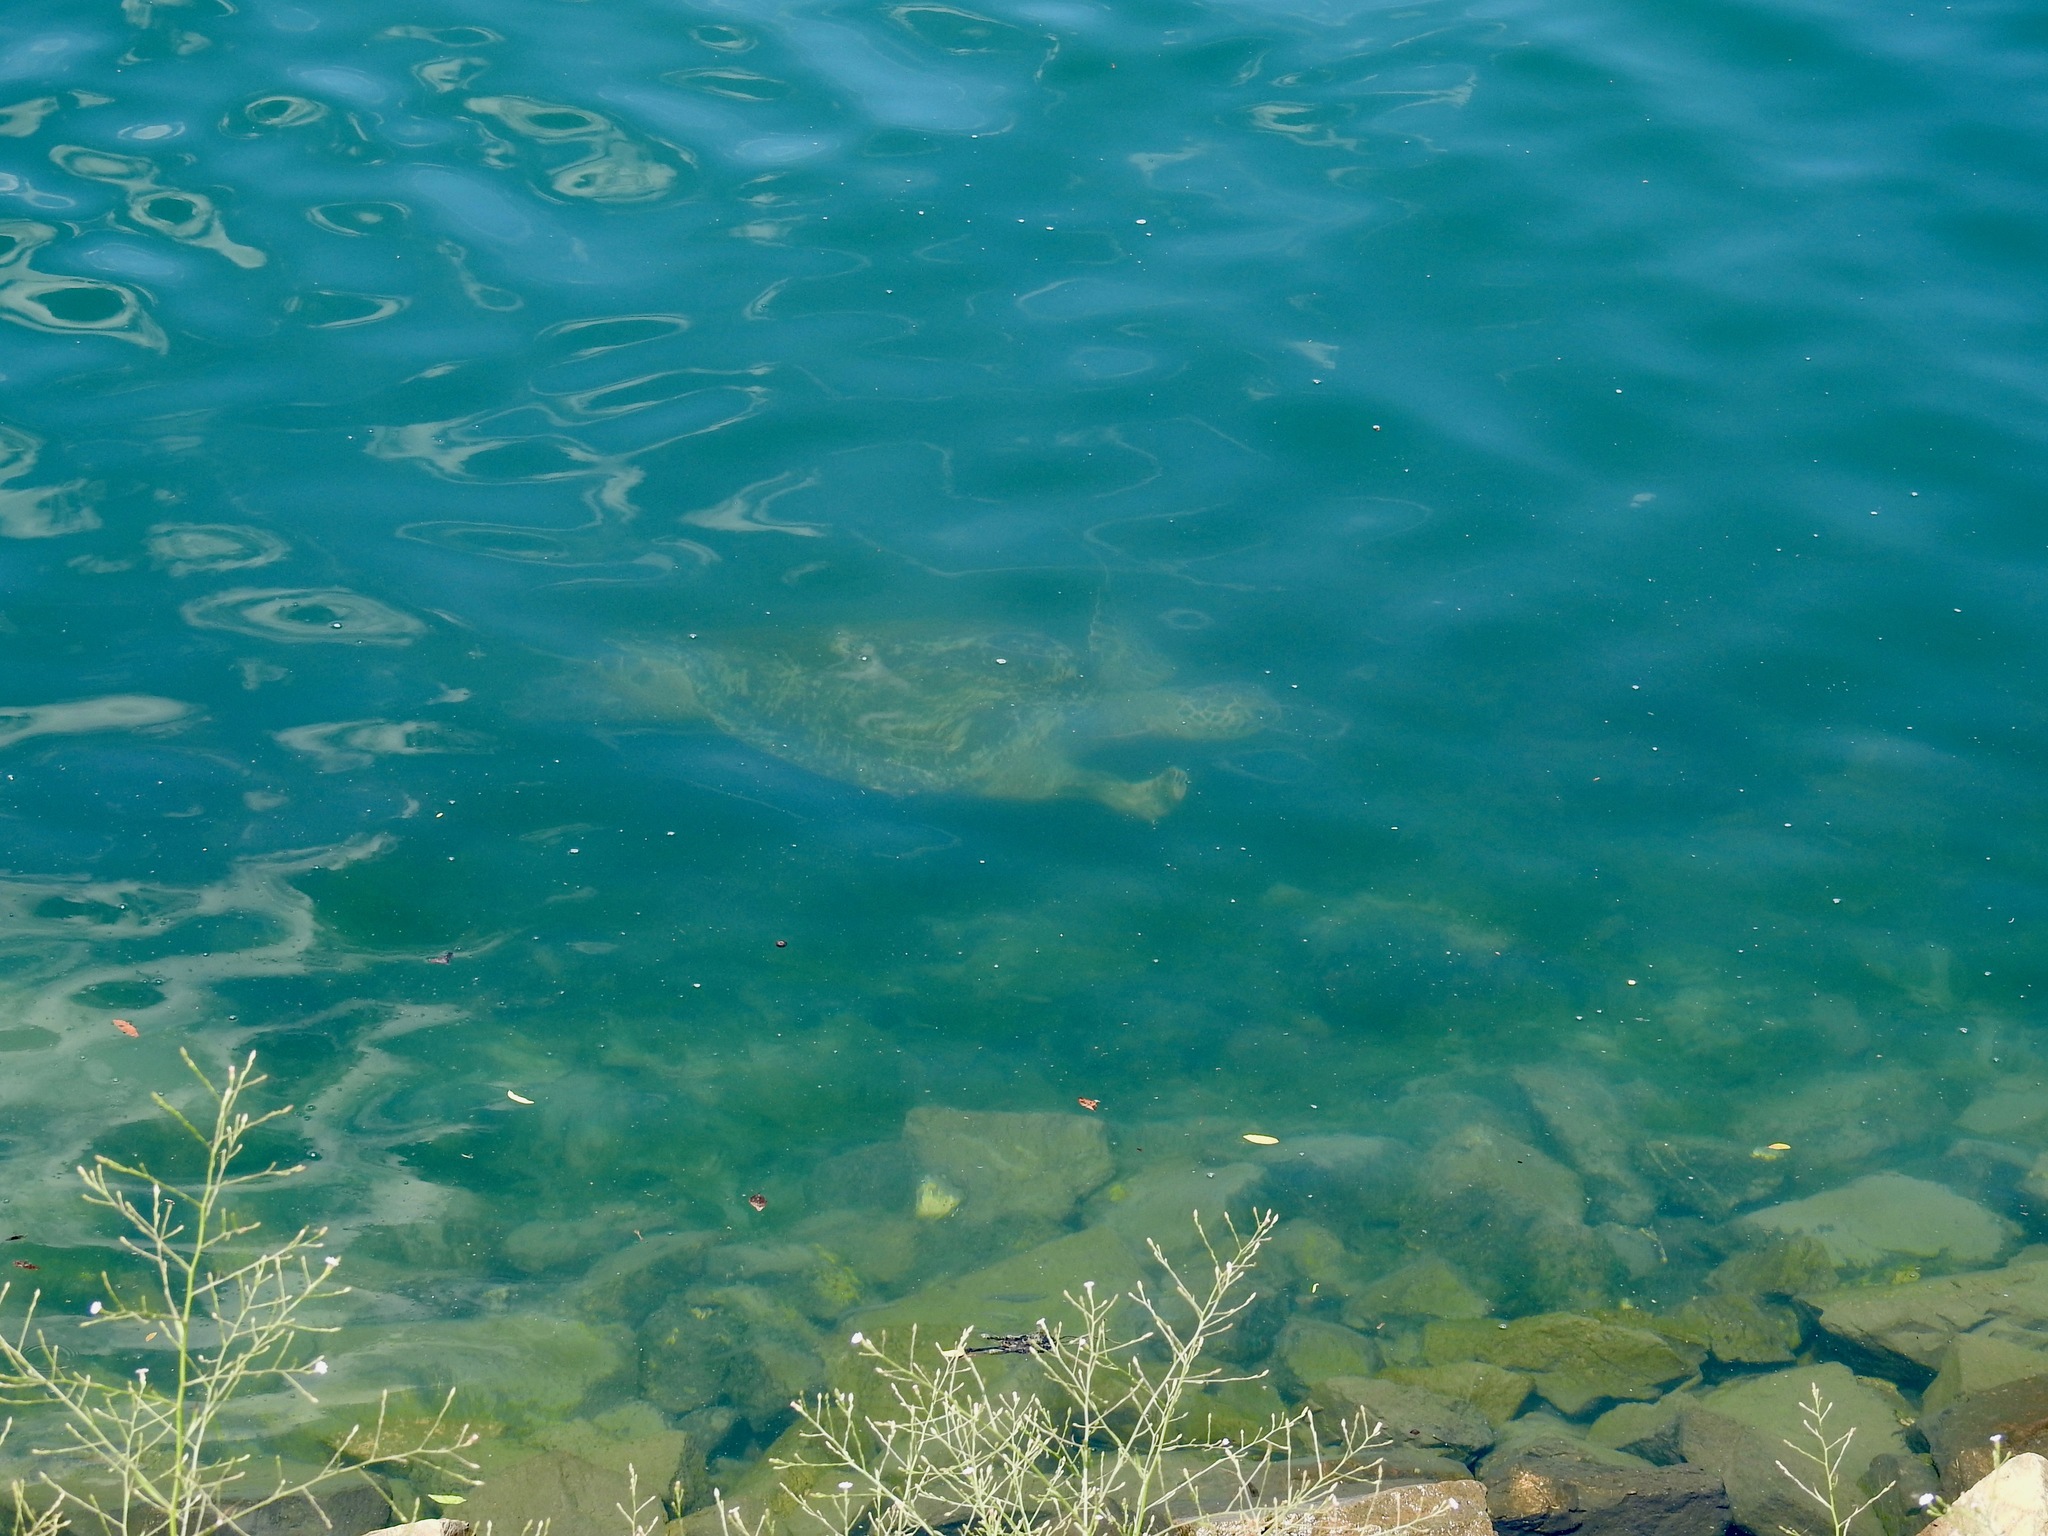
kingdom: Animalia
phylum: Chordata
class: Testudines
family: Cheloniidae
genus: Chelonia
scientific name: Chelonia mydas
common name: Green turtle
